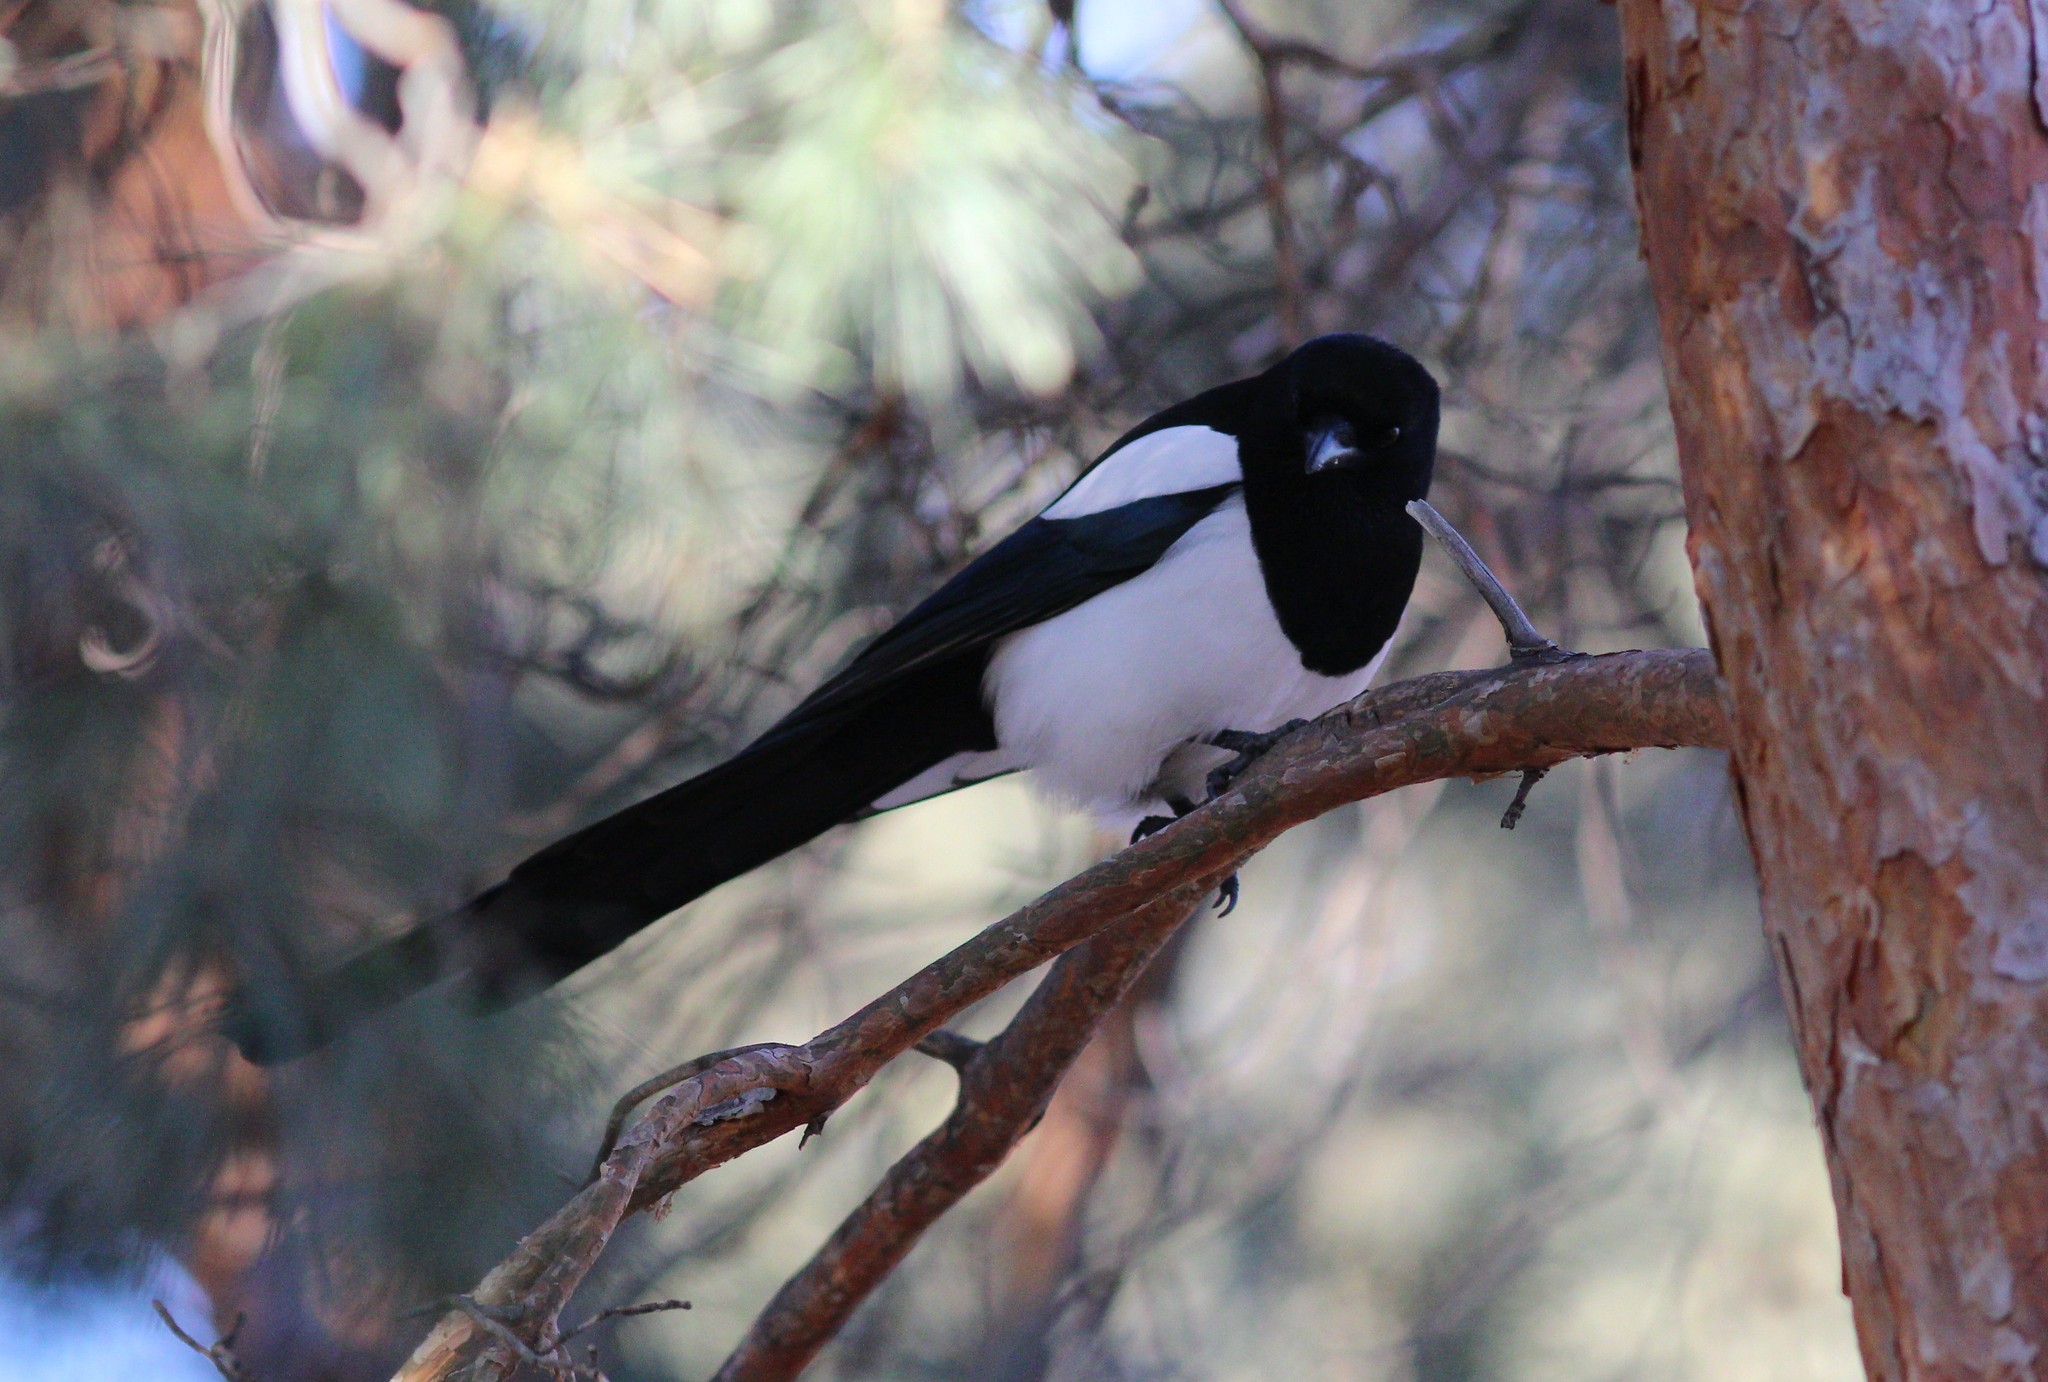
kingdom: Animalia
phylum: Chordata
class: Aves
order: Passeriformes
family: Corvidae
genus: Pica
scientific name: Pica pica
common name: Eurasian magpie
